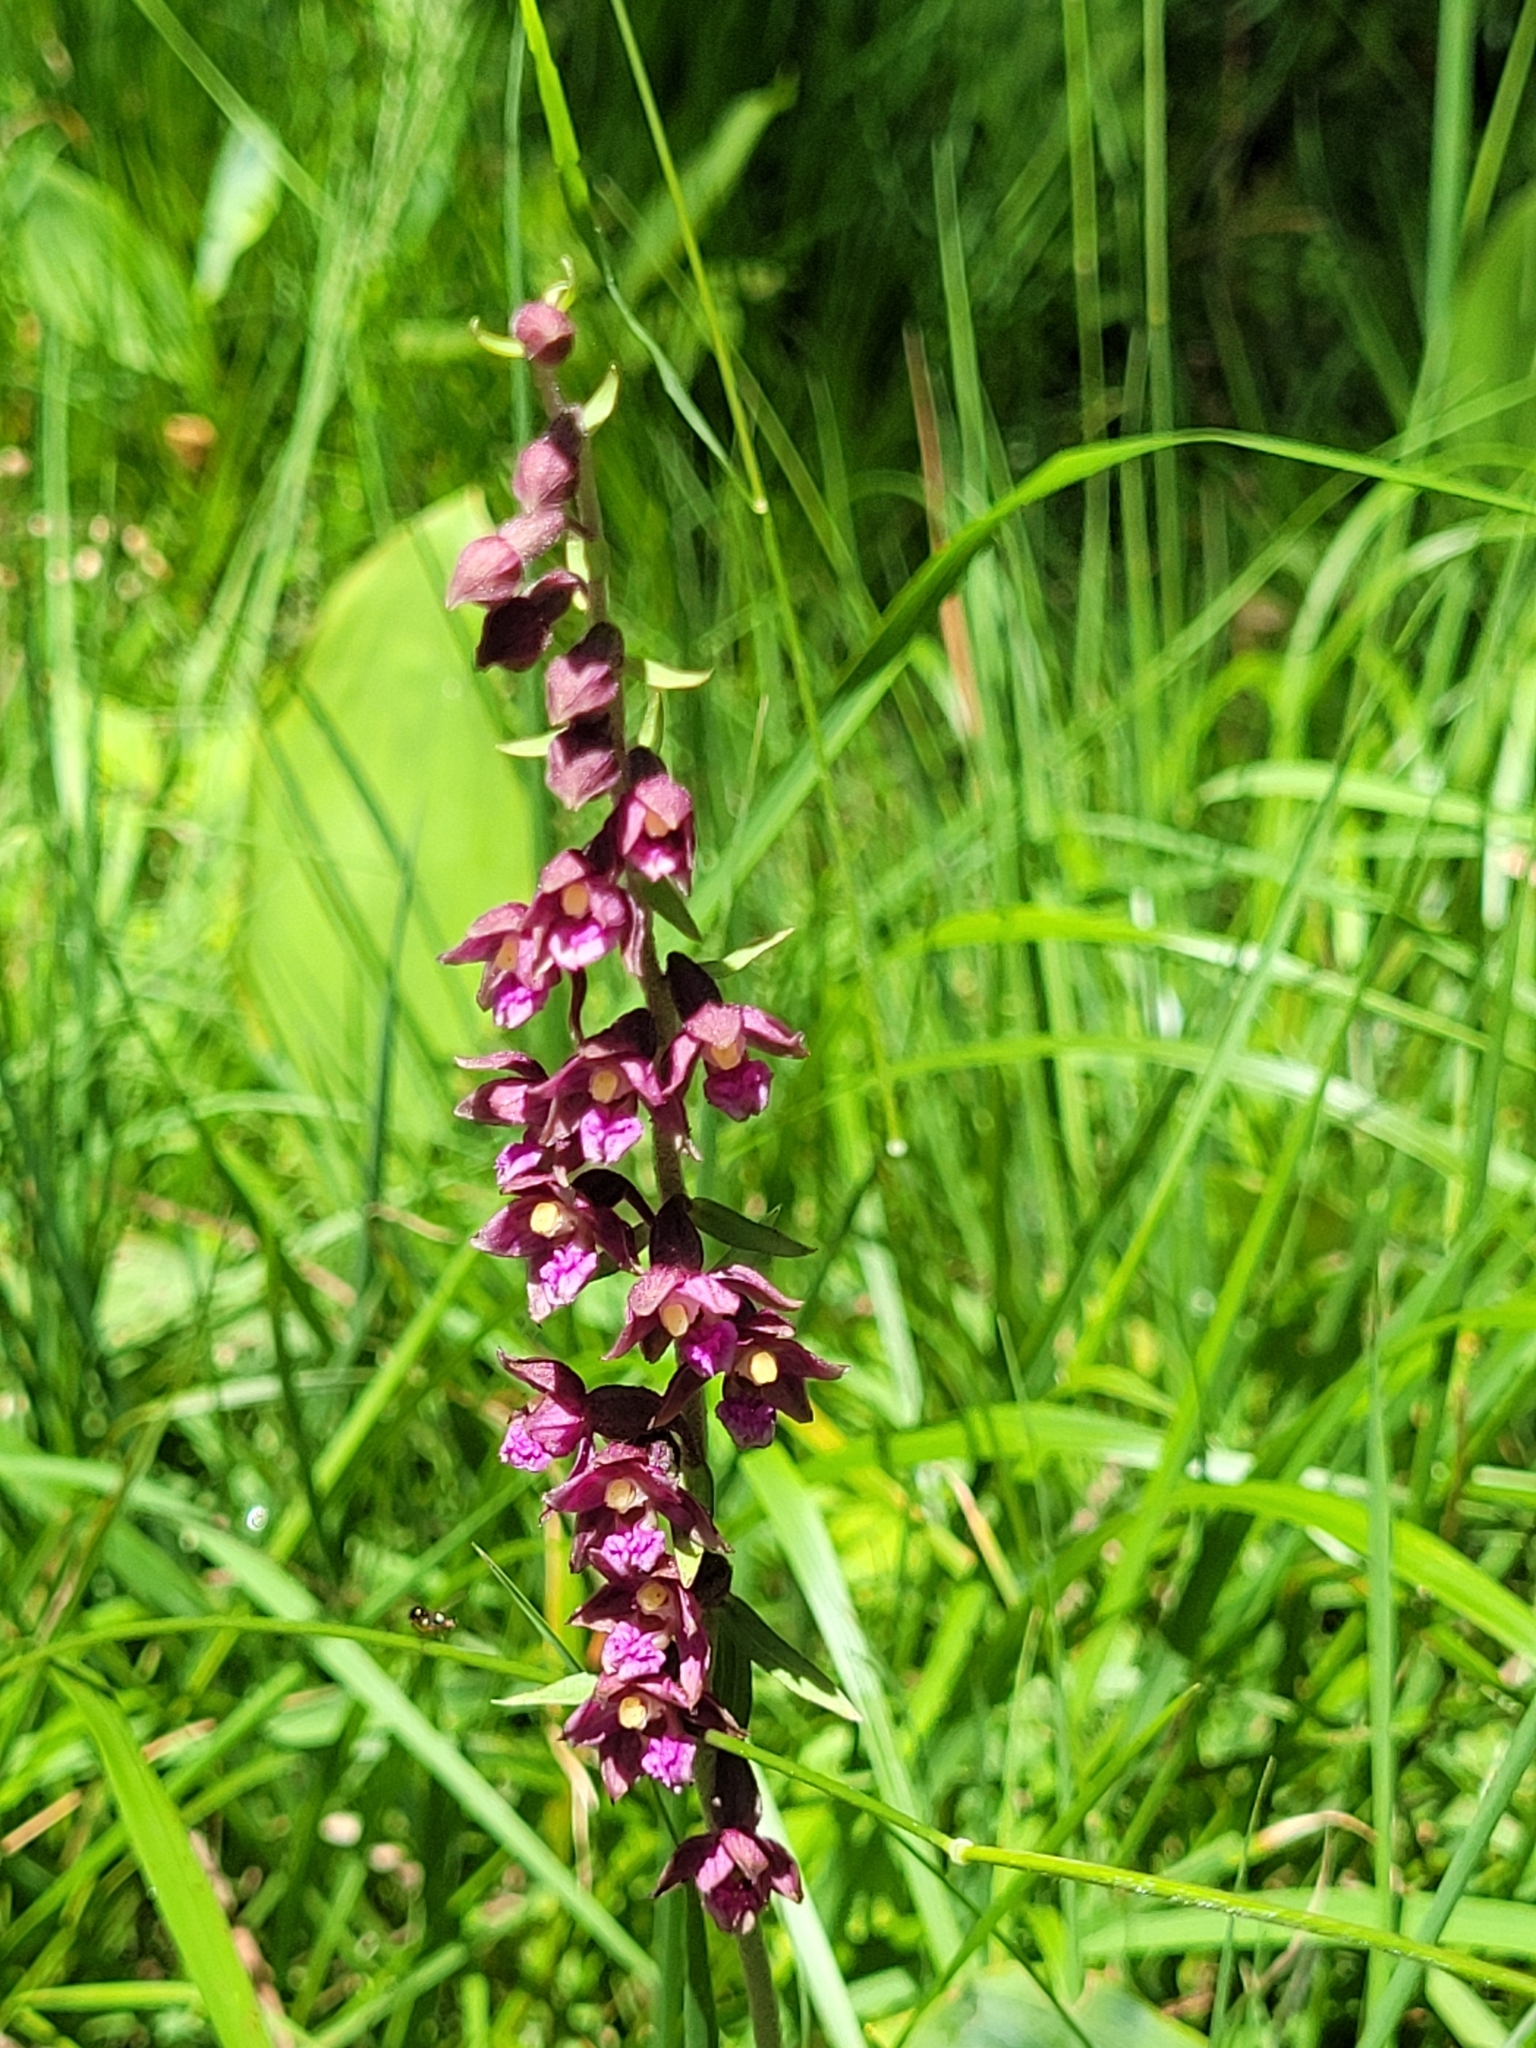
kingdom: Plantae
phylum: Tracheophyta
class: Liliopsida
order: Asparagales
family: Orchidaceae
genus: Epipactis
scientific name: Epipactis atrorubens
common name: Dark-red helleborine
